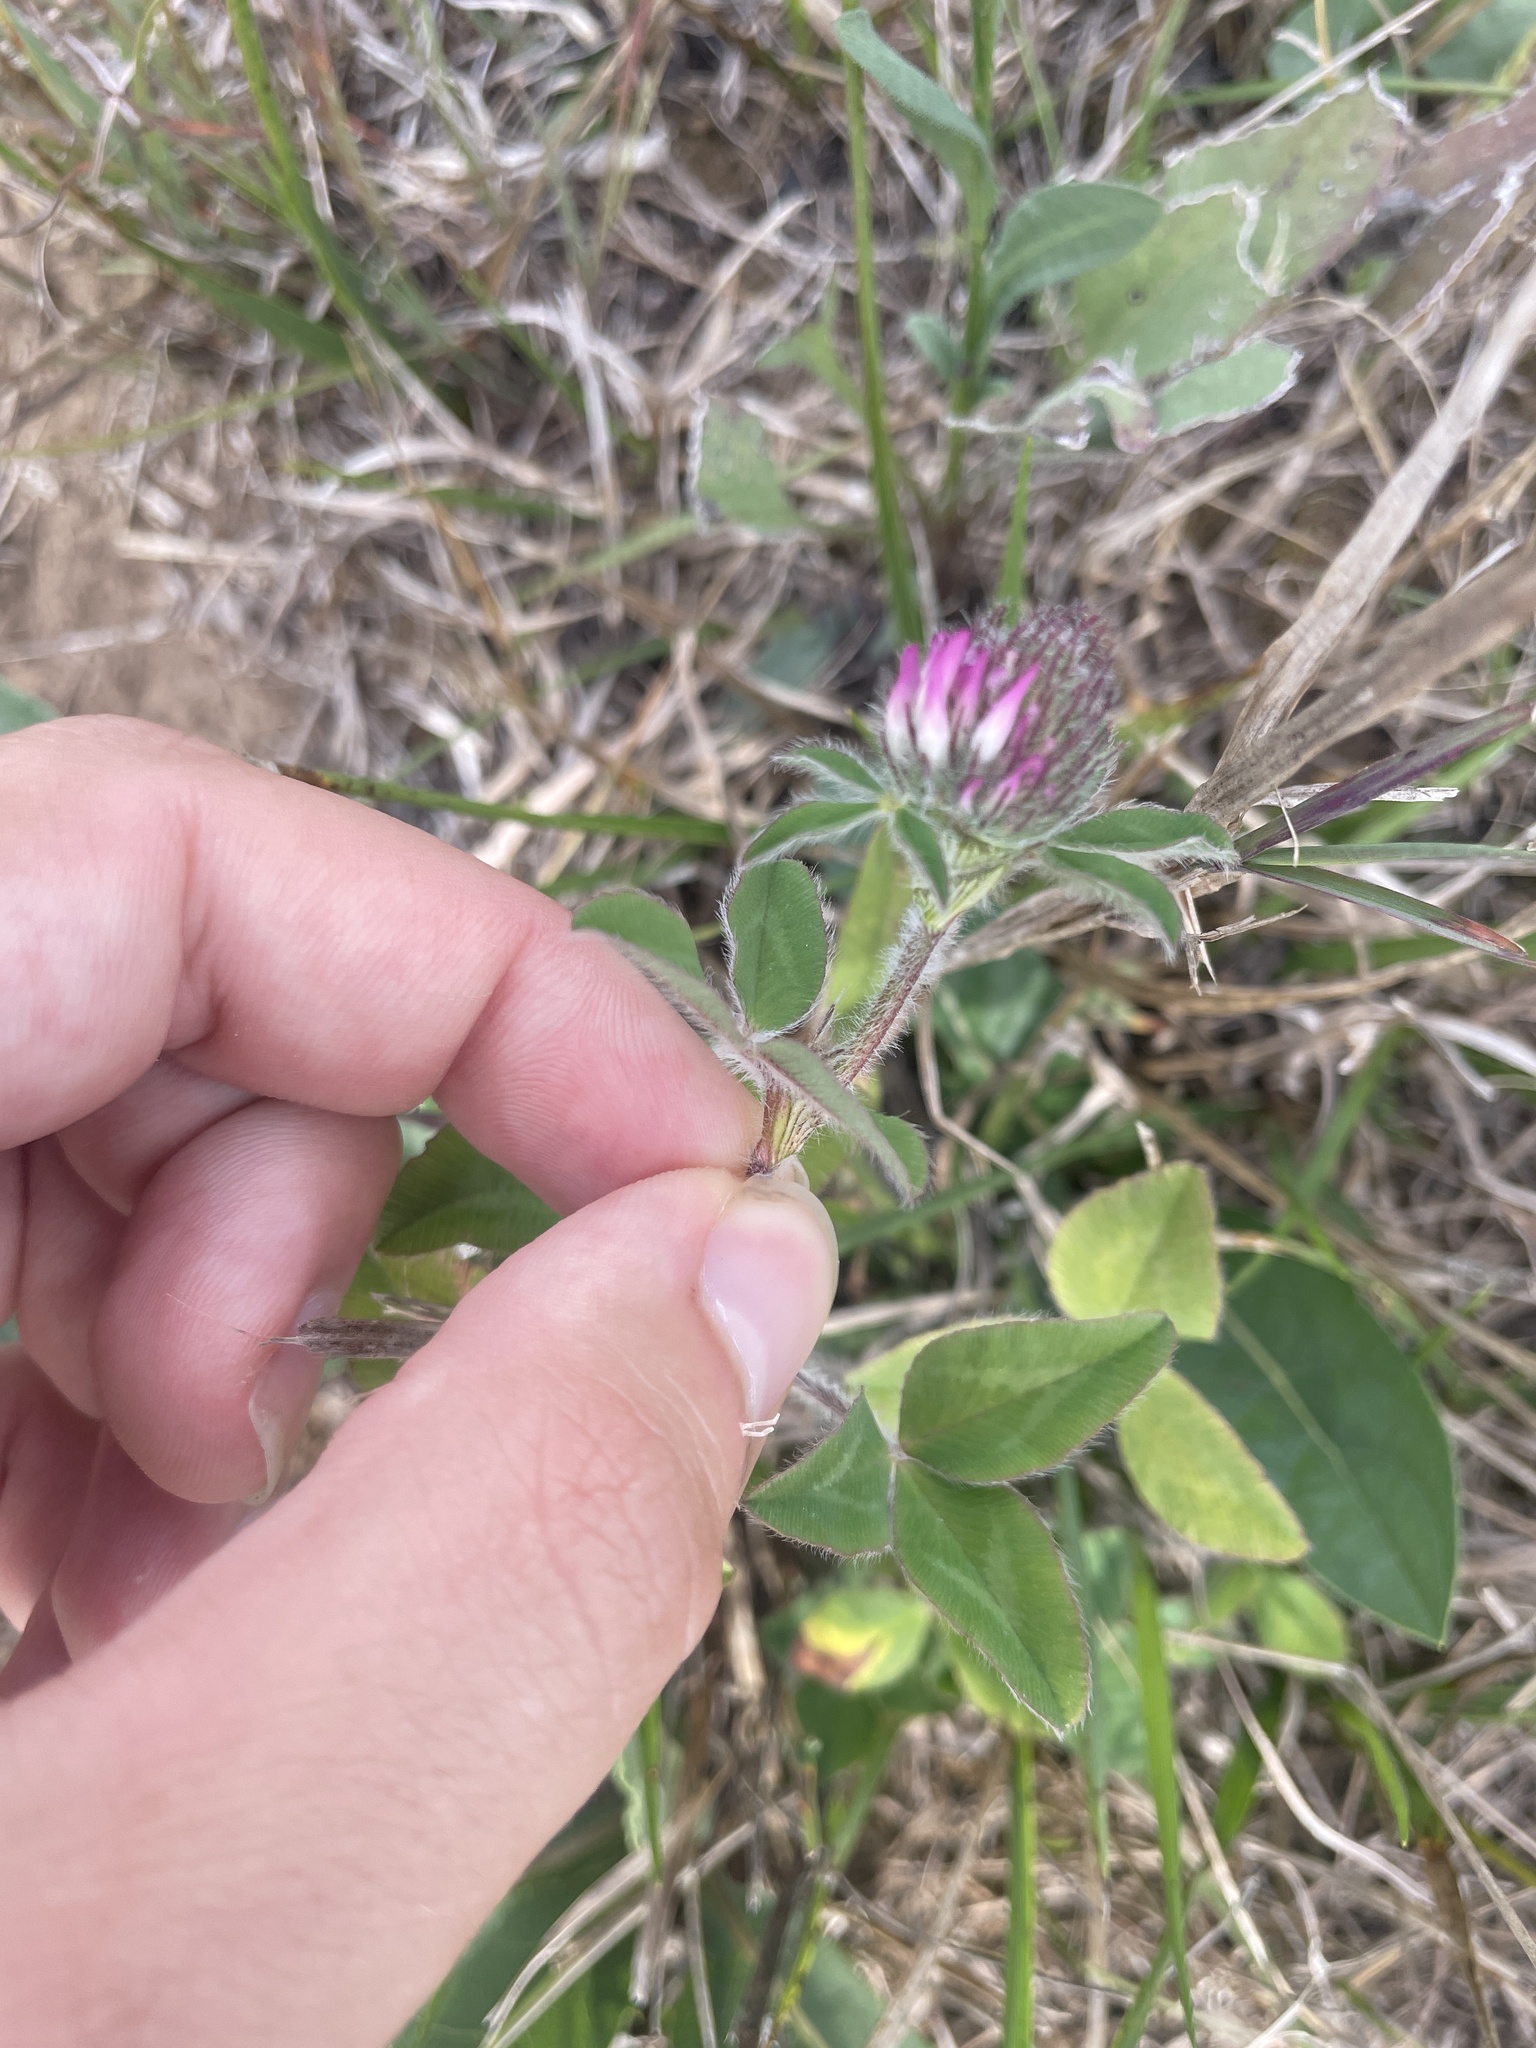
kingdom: Plantae
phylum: Tracheophyta
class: Magnoliopsida
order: Fabales
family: Fabaceae
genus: Trifolium
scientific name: Trifolium pratense
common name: Red clover
